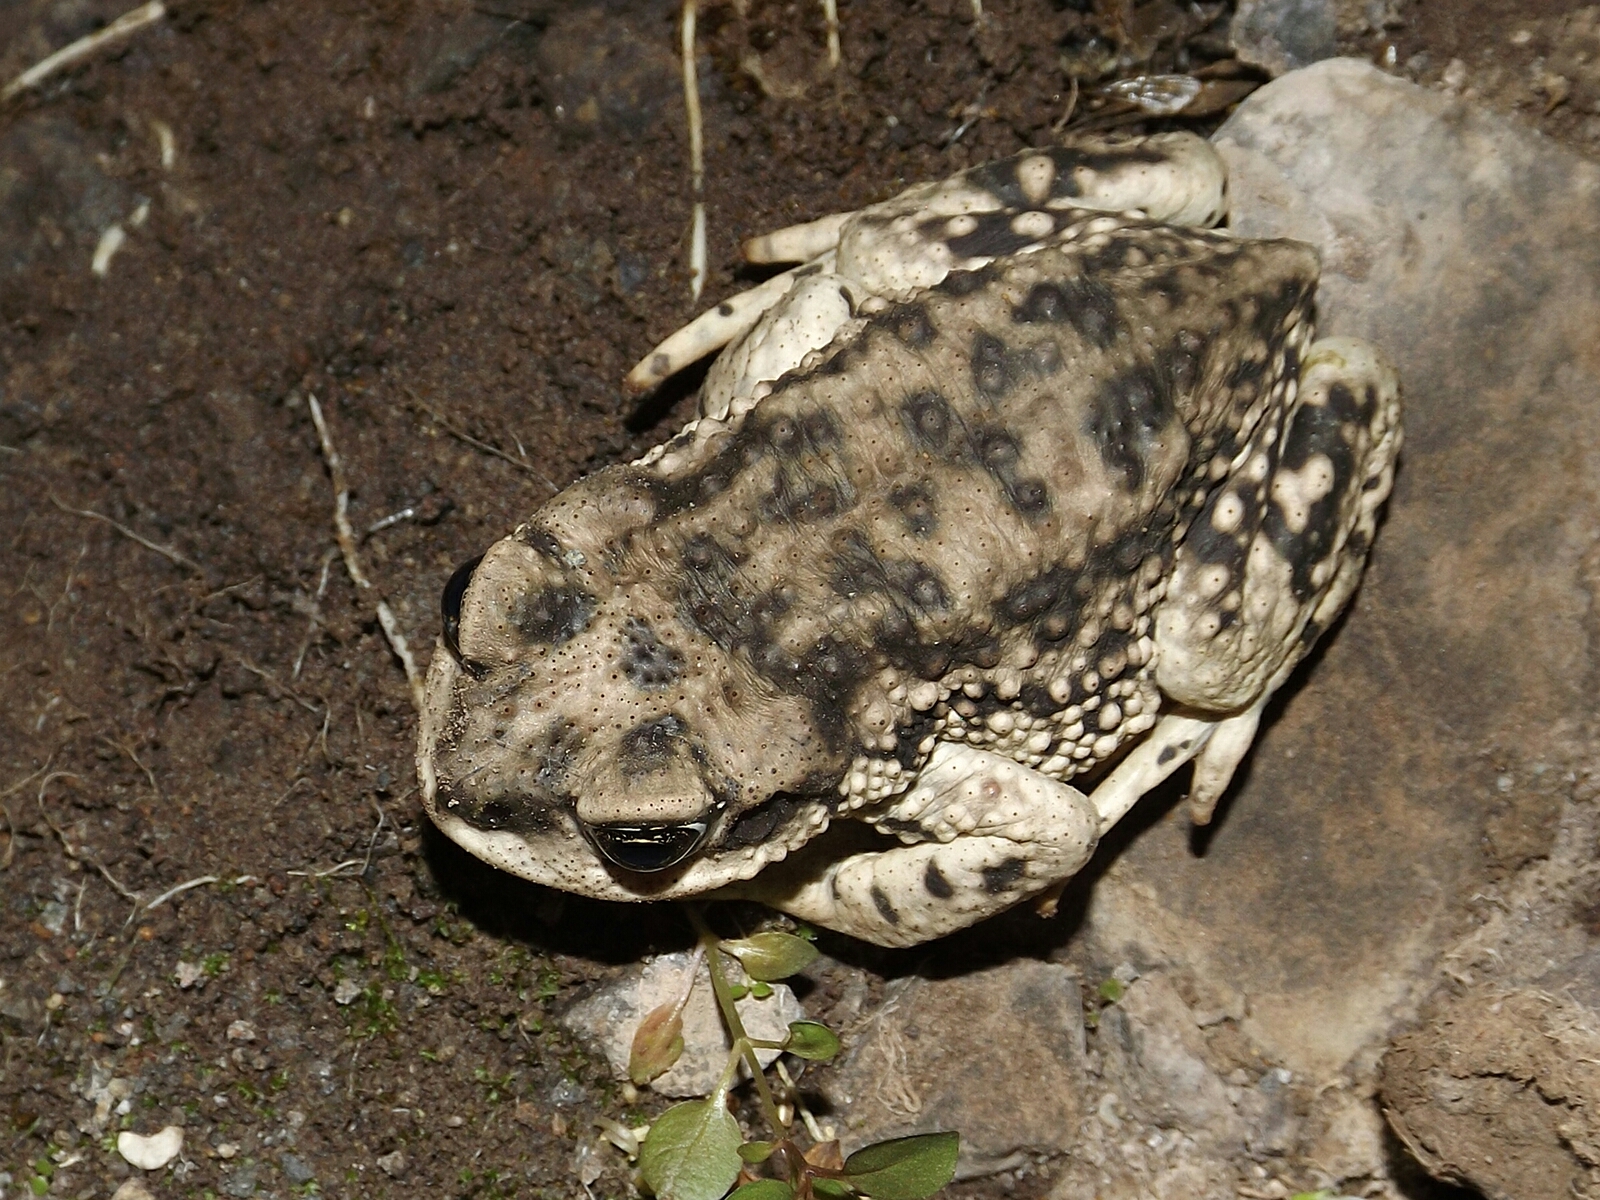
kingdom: Animalia
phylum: Chordata
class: Amphibia
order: Anura
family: Bufonidae
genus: Rhinella
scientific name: Rhinella arunco
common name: Concepcion toad
